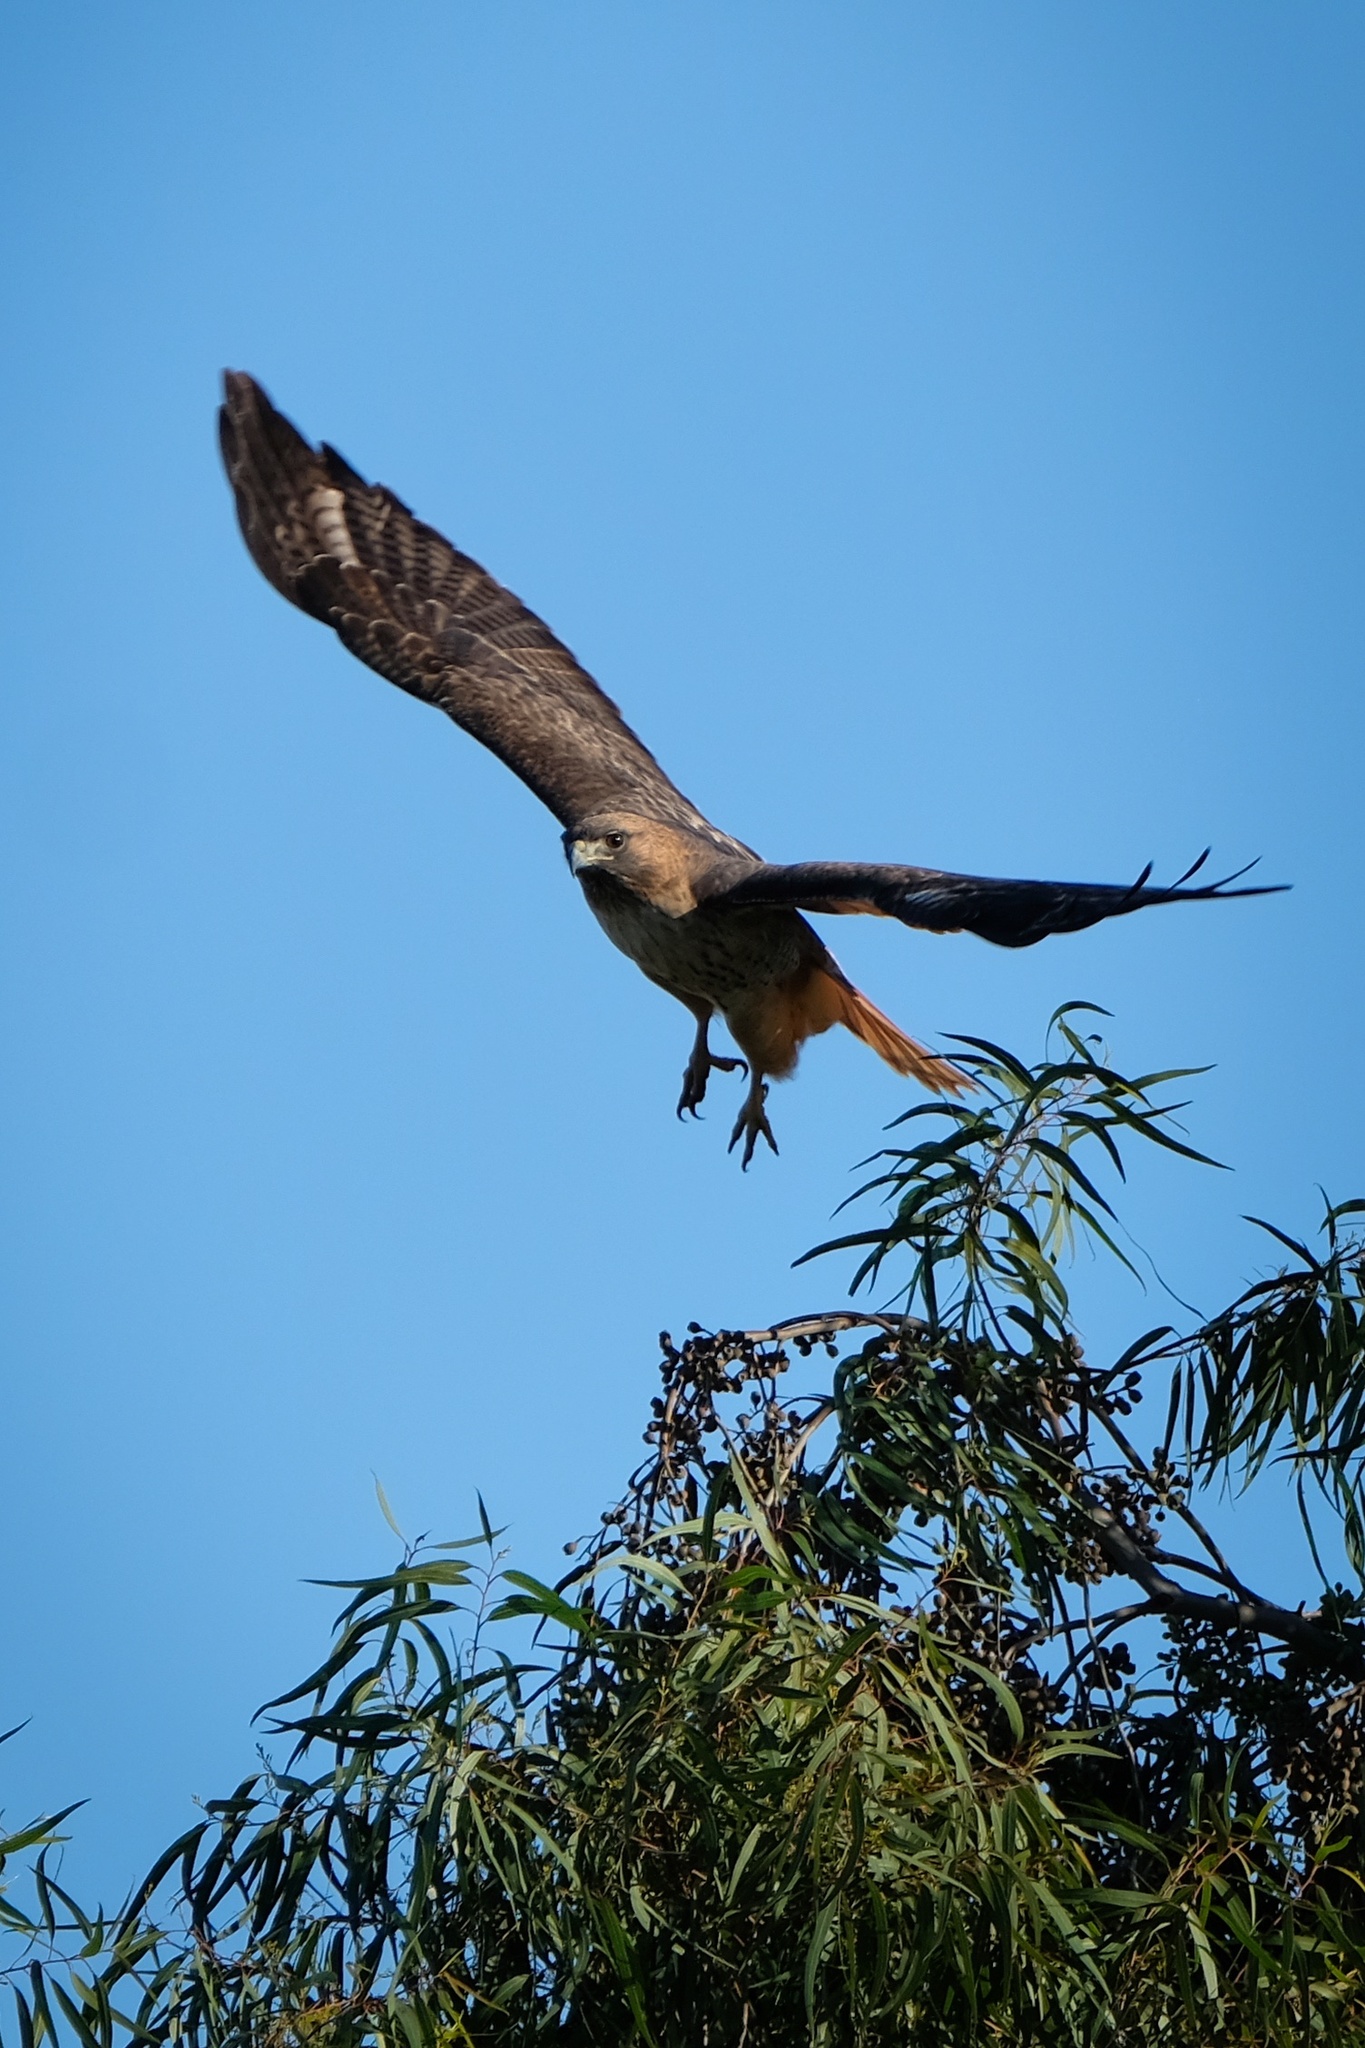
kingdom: Animalia
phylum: Chordata
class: Aves
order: Accipitriformes
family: Accipitridae
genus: Buteo
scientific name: Buteo jamaicensis
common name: Red-tailed hawk
